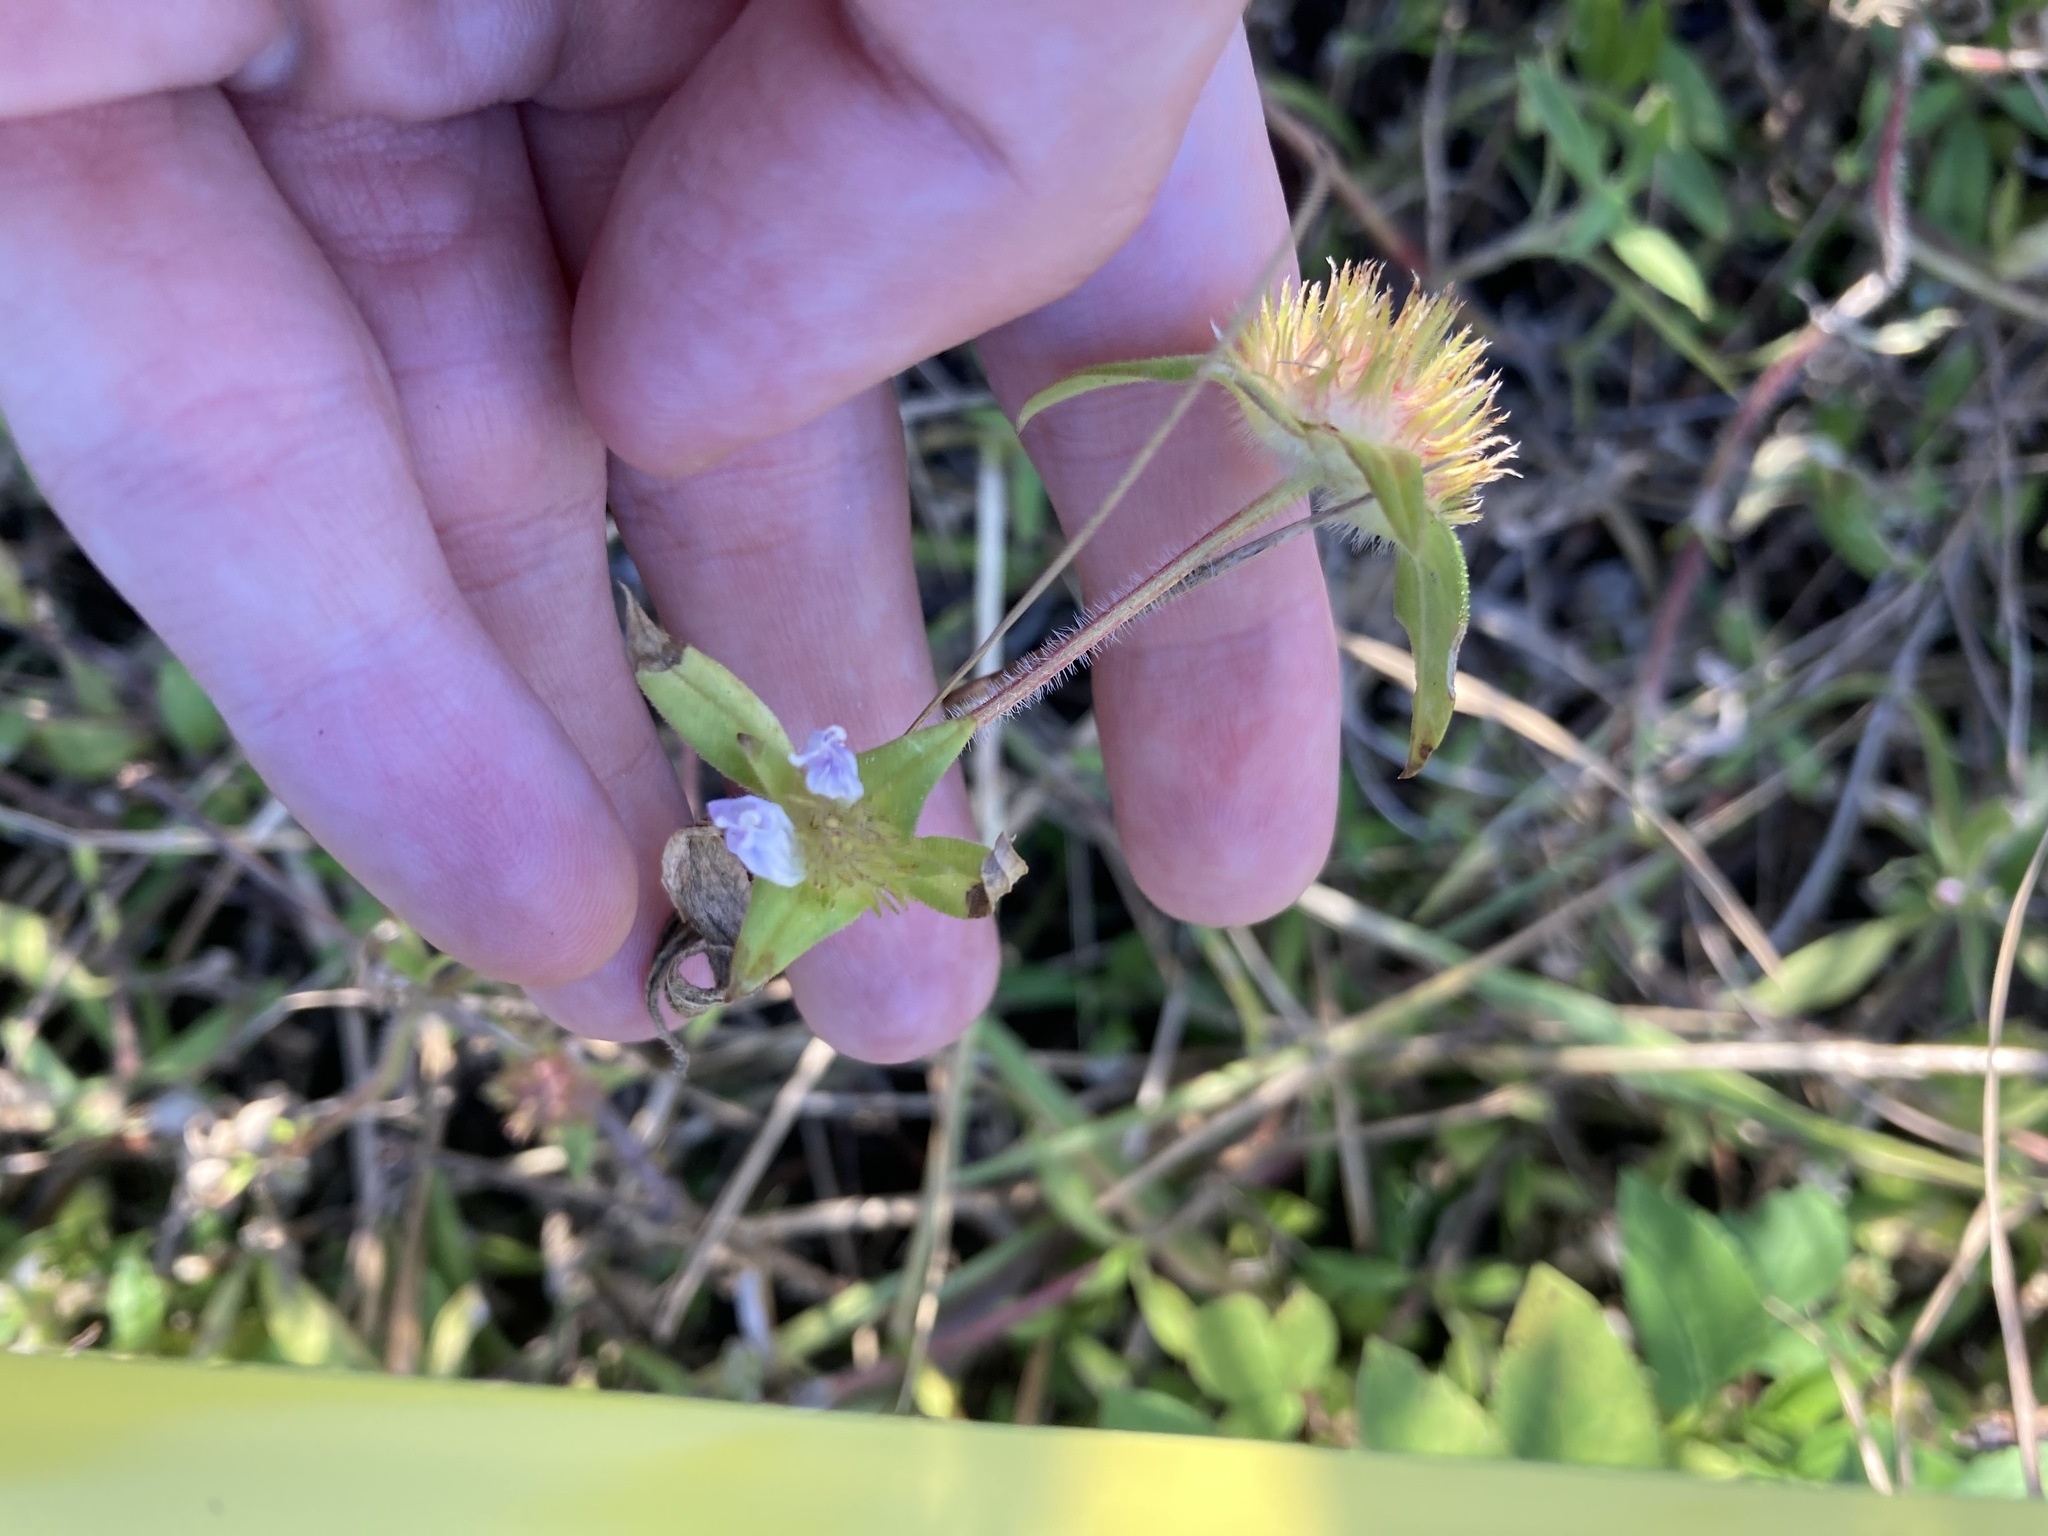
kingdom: Plantae
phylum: Tracheophyta
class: Magnoliopsida
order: Gentianales
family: Rubiaceae
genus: Richardia
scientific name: Richardia grandiflora
